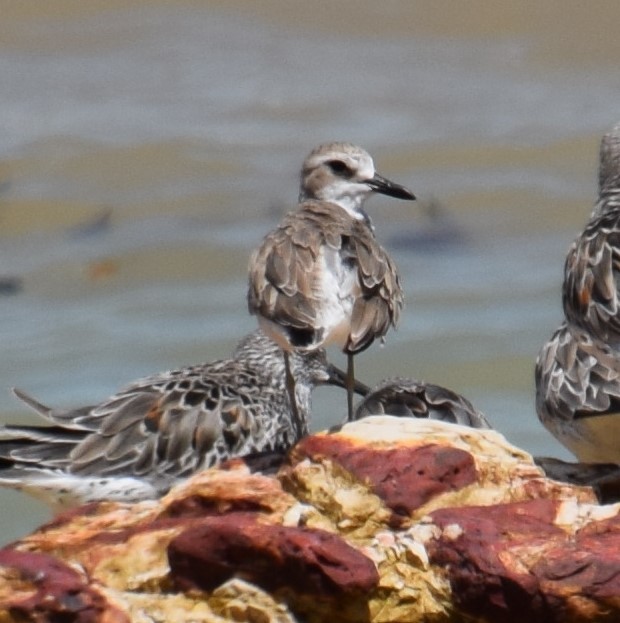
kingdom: Animalia
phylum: Chordata
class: Aves
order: Charadriiformes
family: Charadriidae
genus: Pluvialis
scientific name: Pluvialis squatarola
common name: Grey plover
